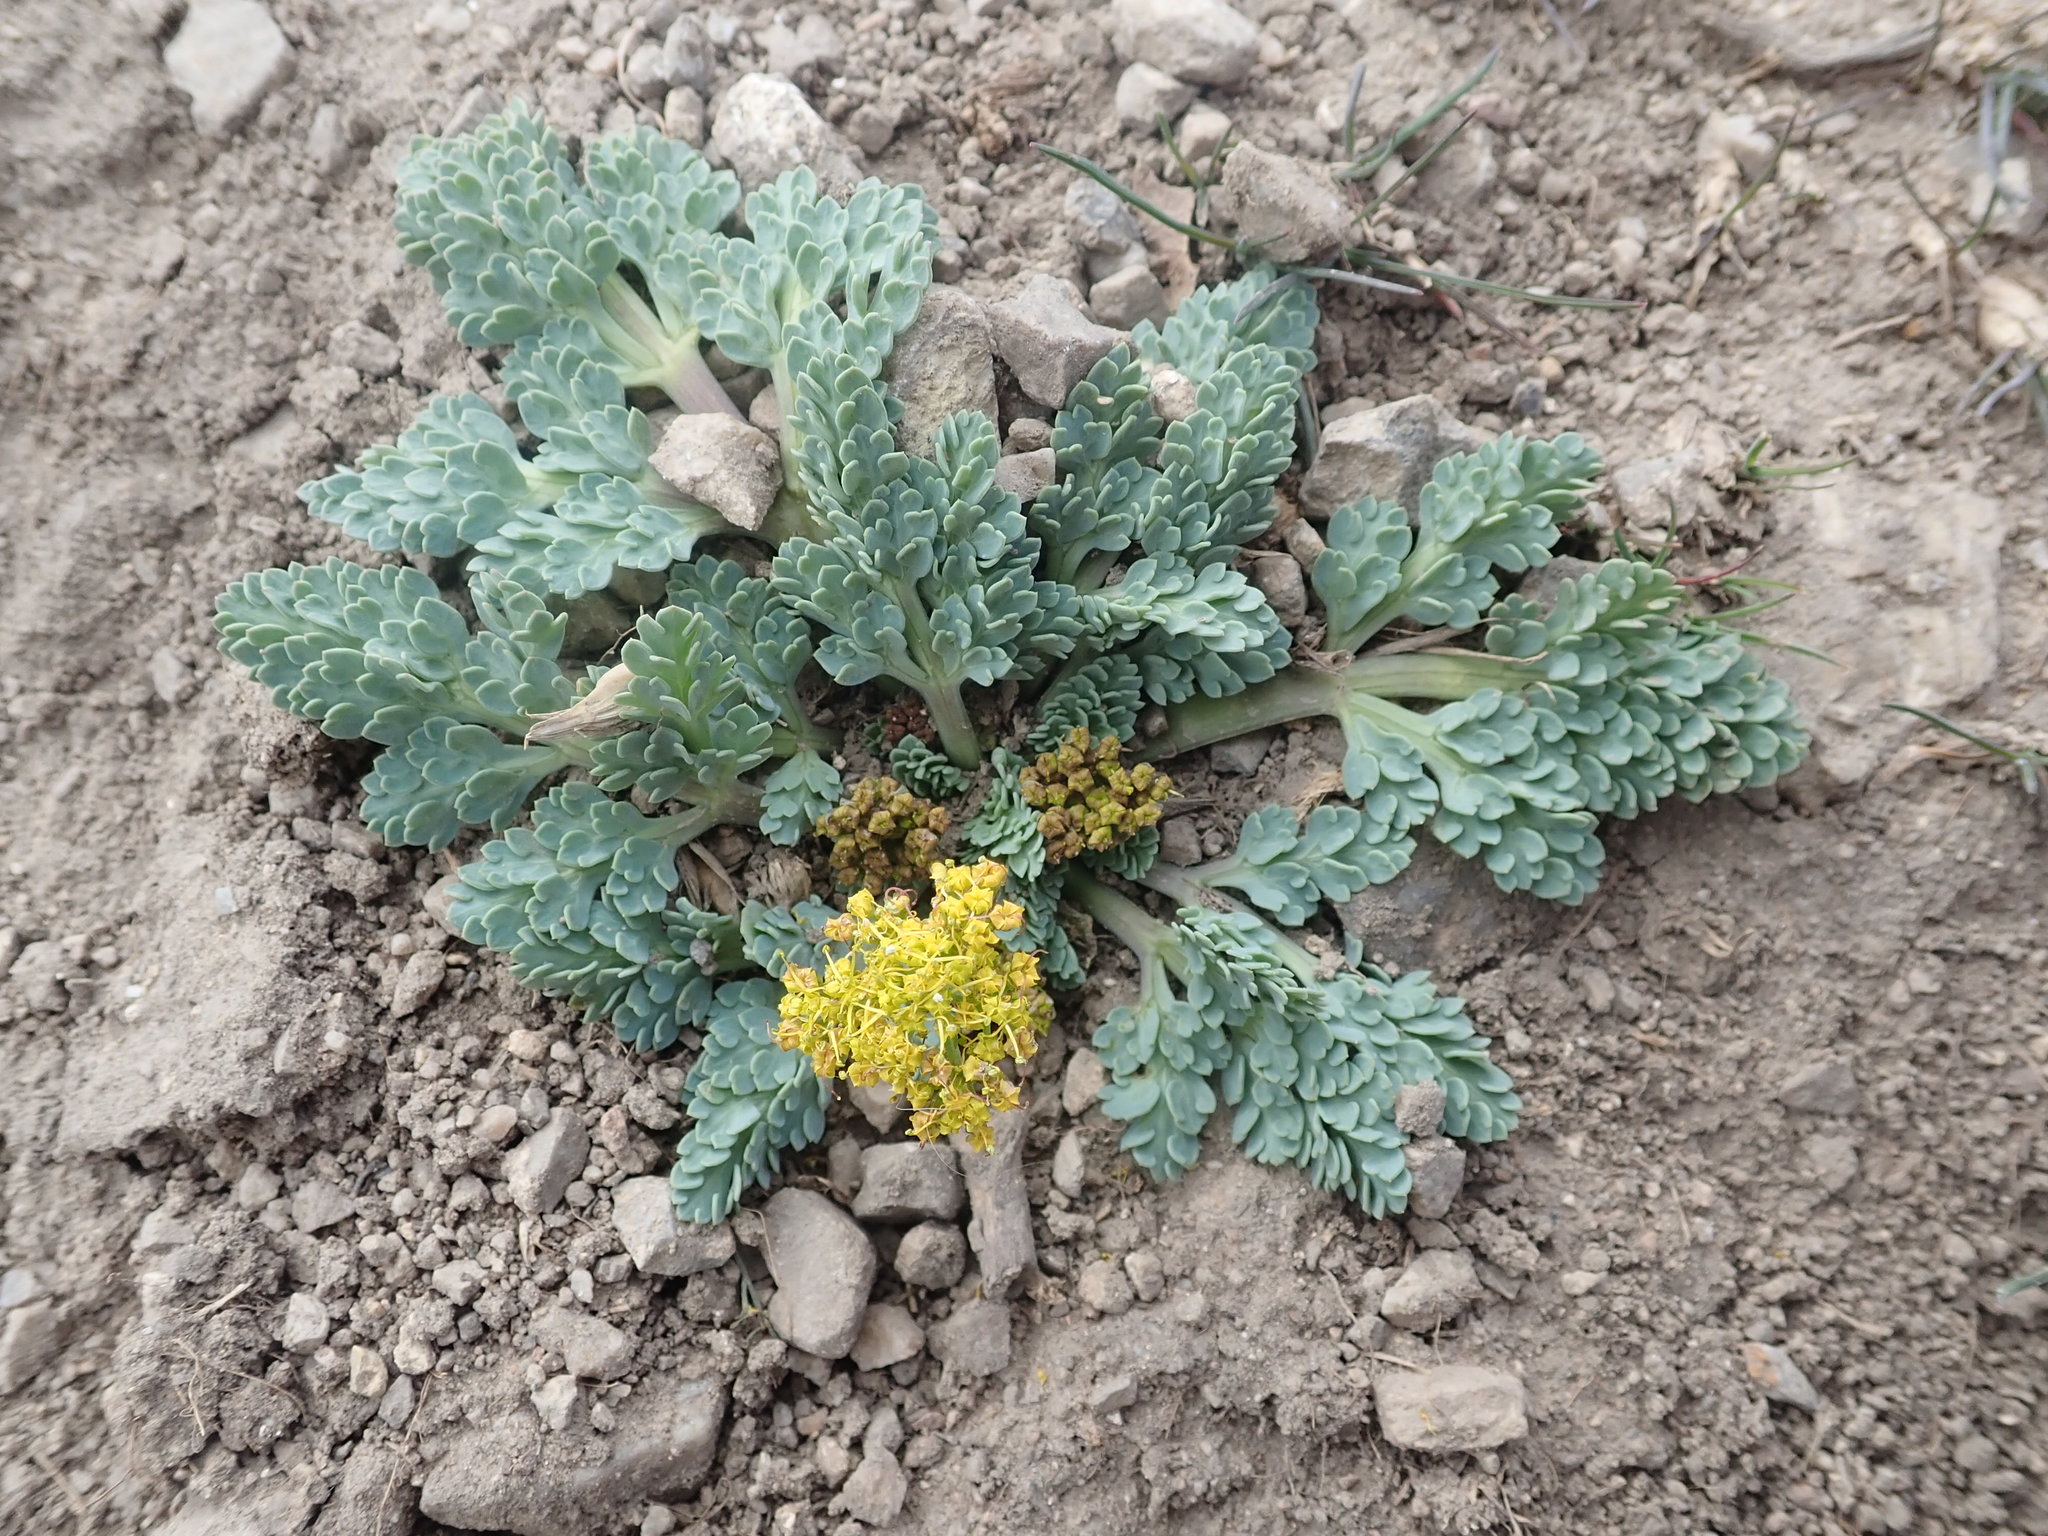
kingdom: Plantae
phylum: Tracheophyta
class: Magnoliopsida
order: Apiales
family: Apiaceae
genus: Aulospermum
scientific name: Aulospermum longipes
